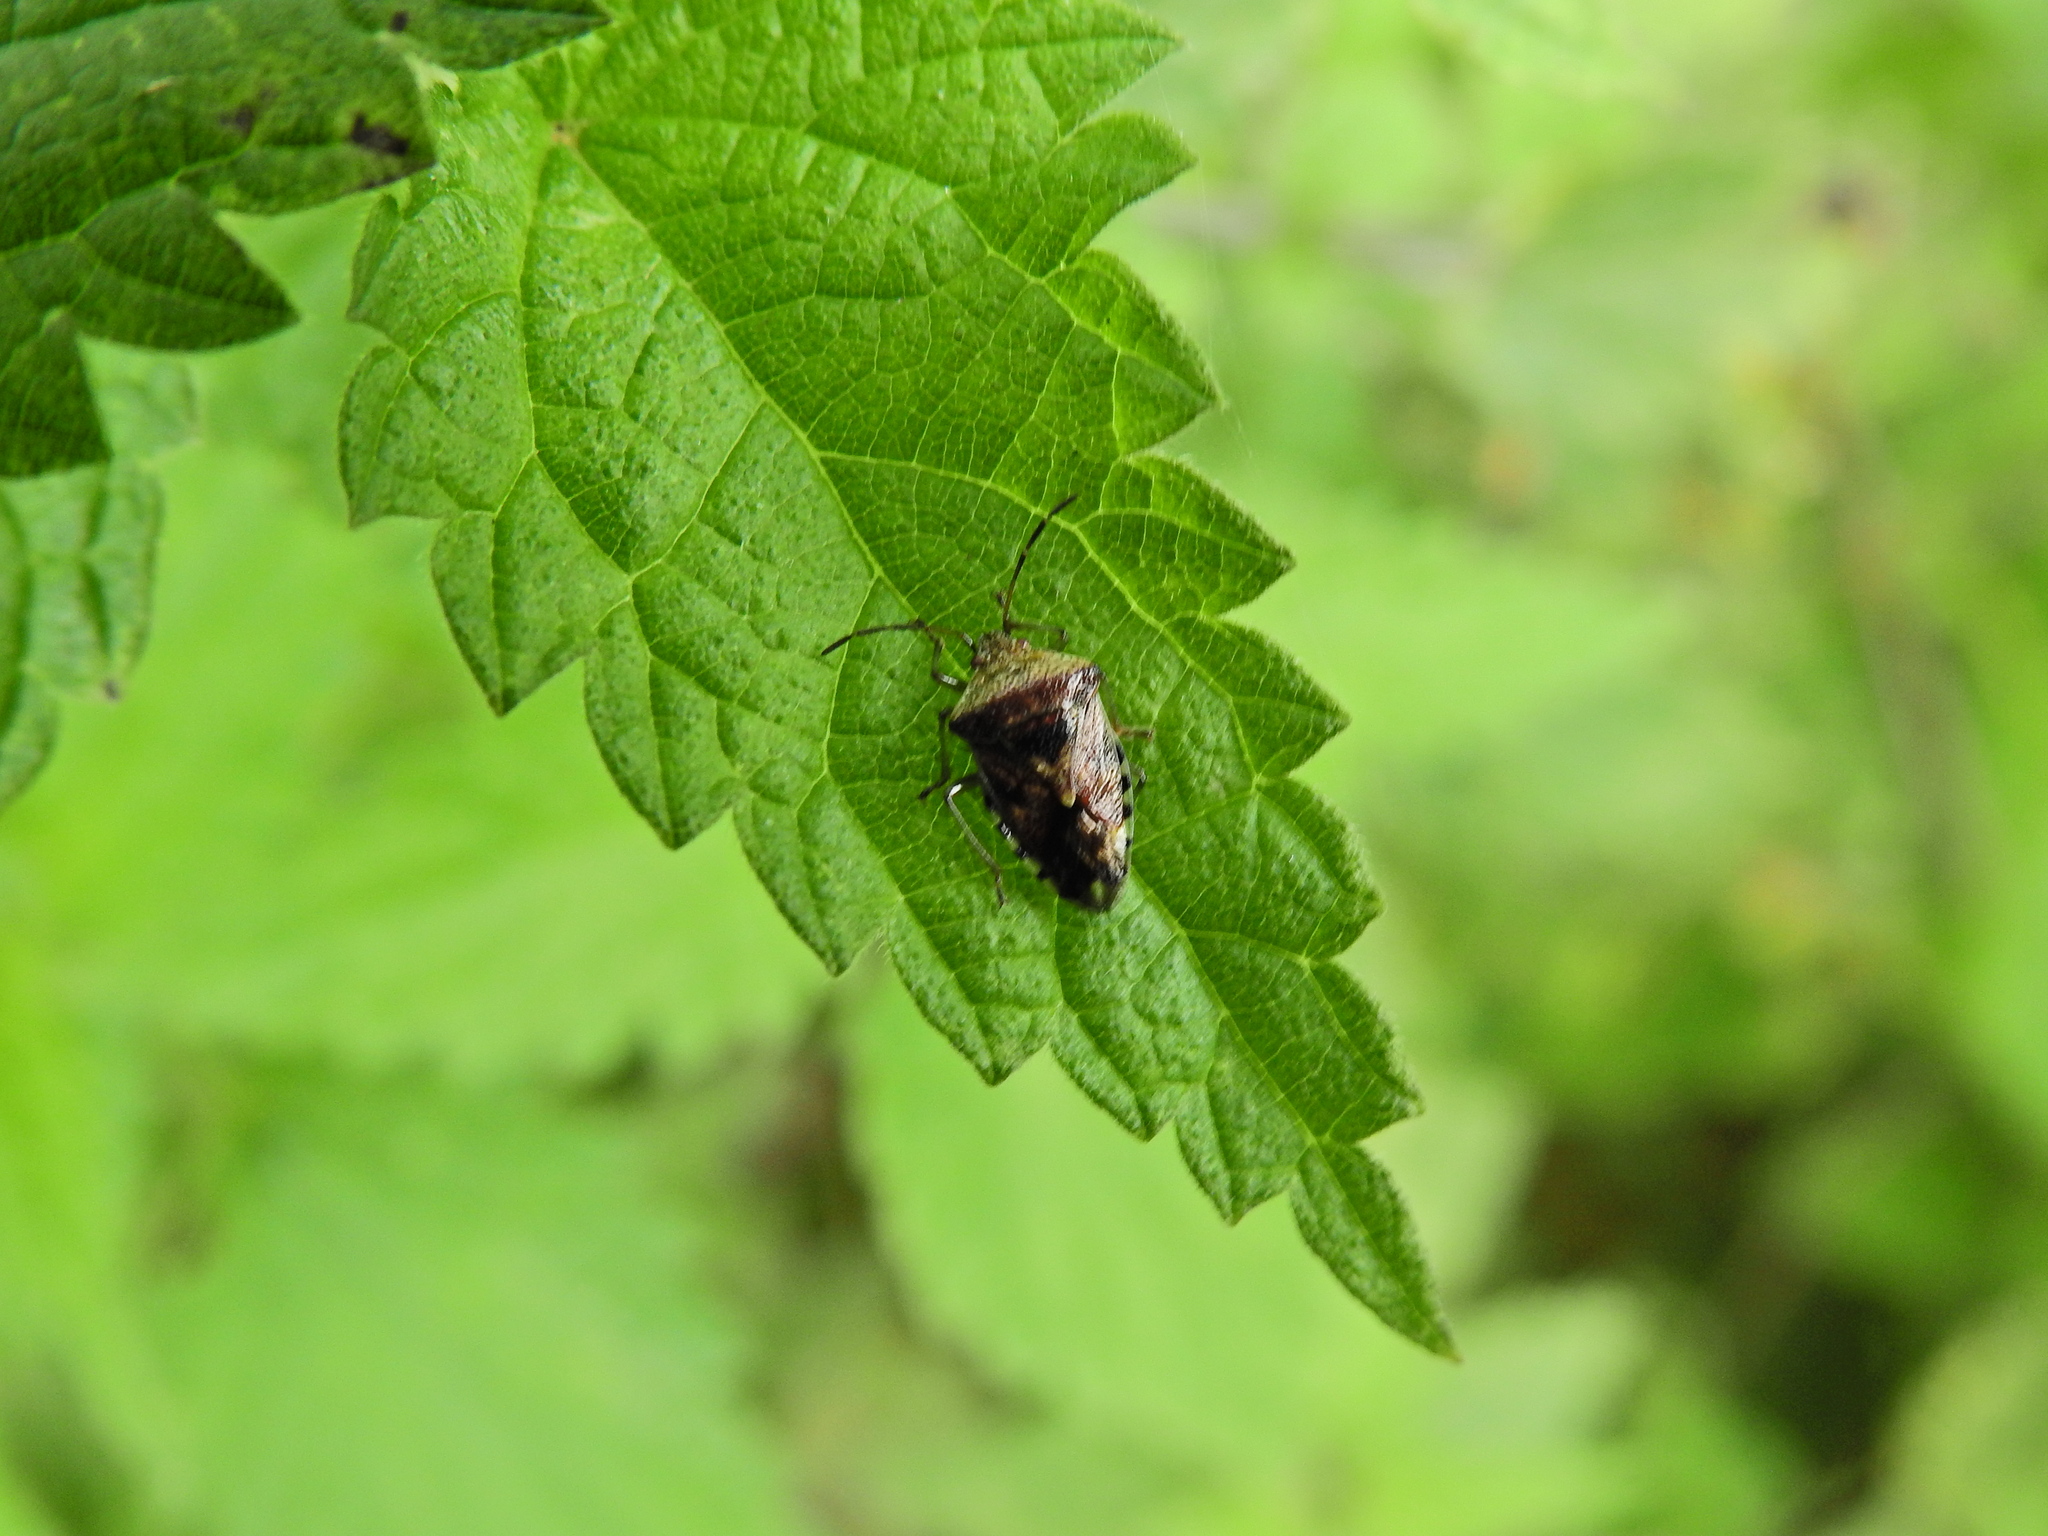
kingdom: Animalia
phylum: Arthropoda
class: Insecta
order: Hemiptera
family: Acanthosomatidae
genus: Elasmucha
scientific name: Elasmucha grisea
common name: Parent bug
